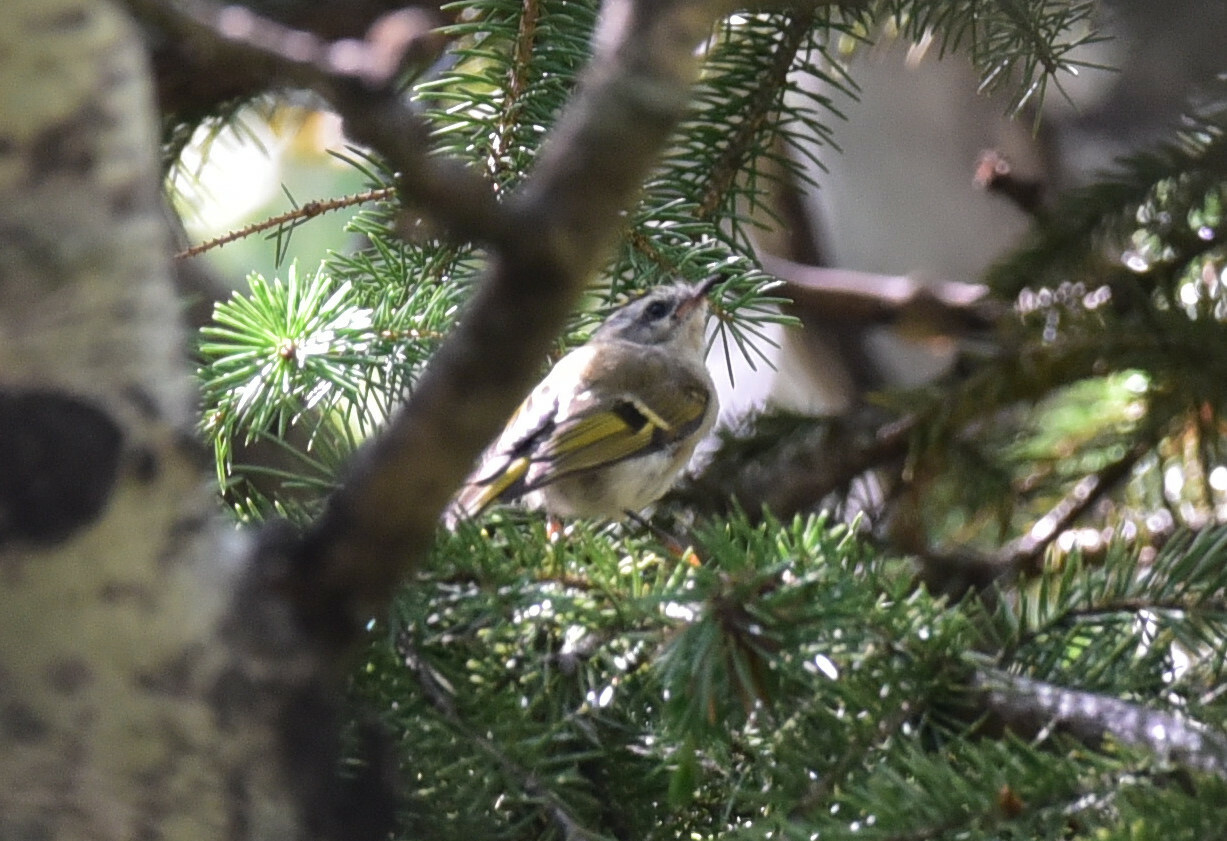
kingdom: Animalia
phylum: Chordata
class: Aves
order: Passeriformes
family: Regulidae
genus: Regulus
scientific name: Regulus satrapa
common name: Golden-crowned kinglet
